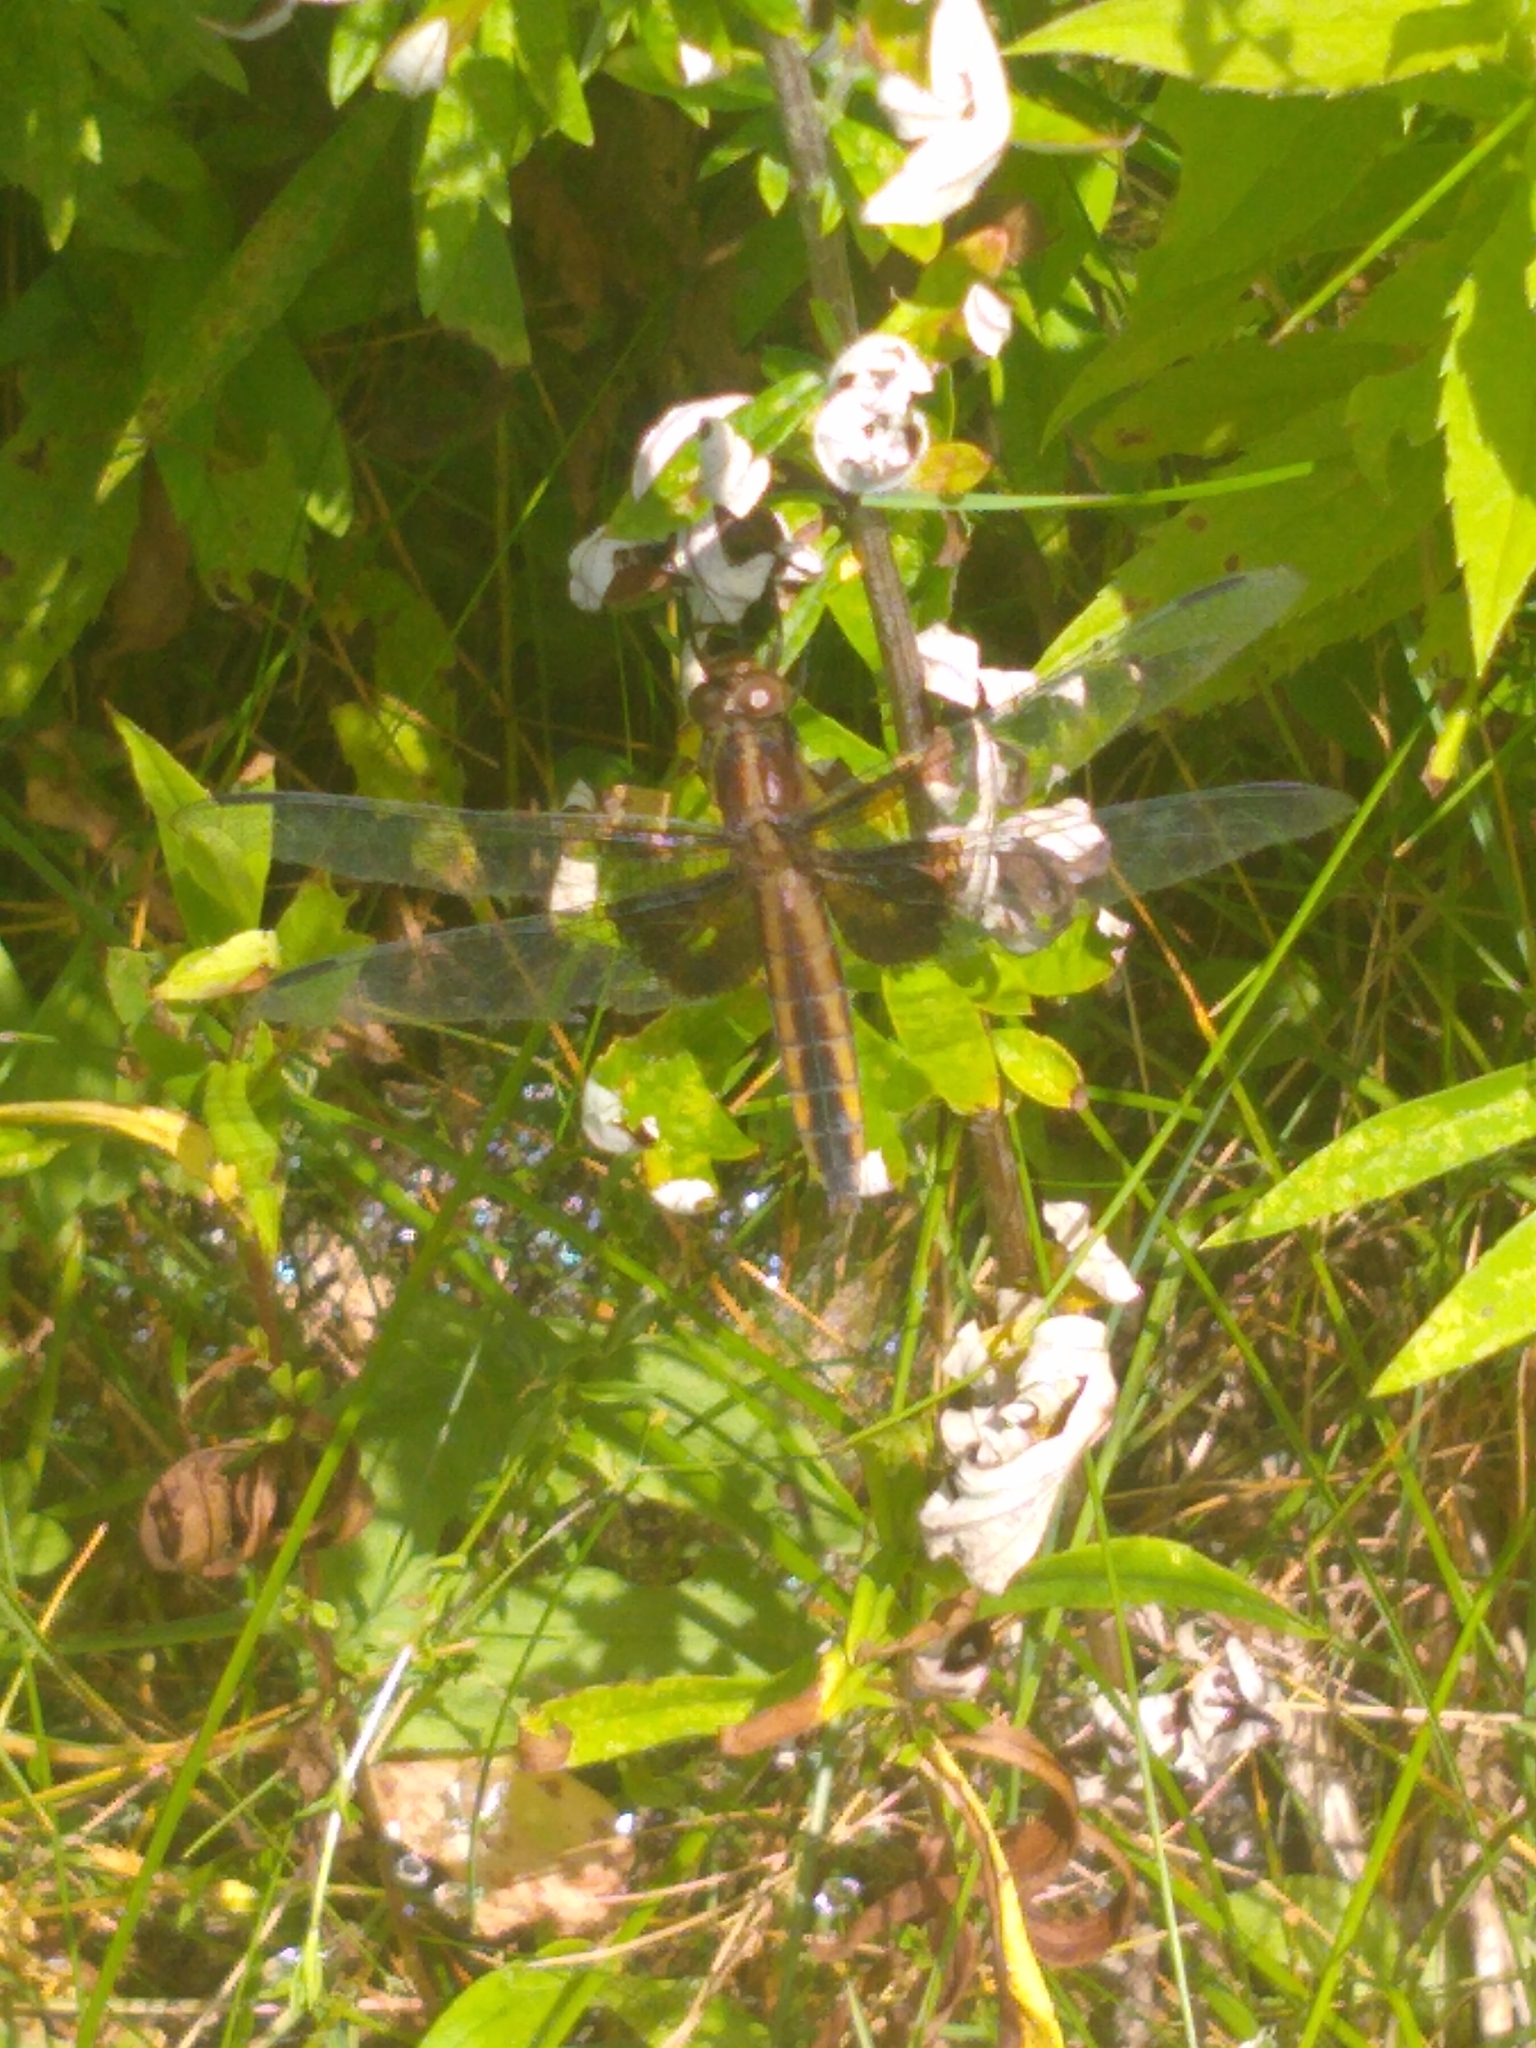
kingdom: Animalia
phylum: Arthropoda
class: Insecta
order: Odonata
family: Libellulidae
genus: Libellula
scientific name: Libellula luctuosa
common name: Widow skimmer
